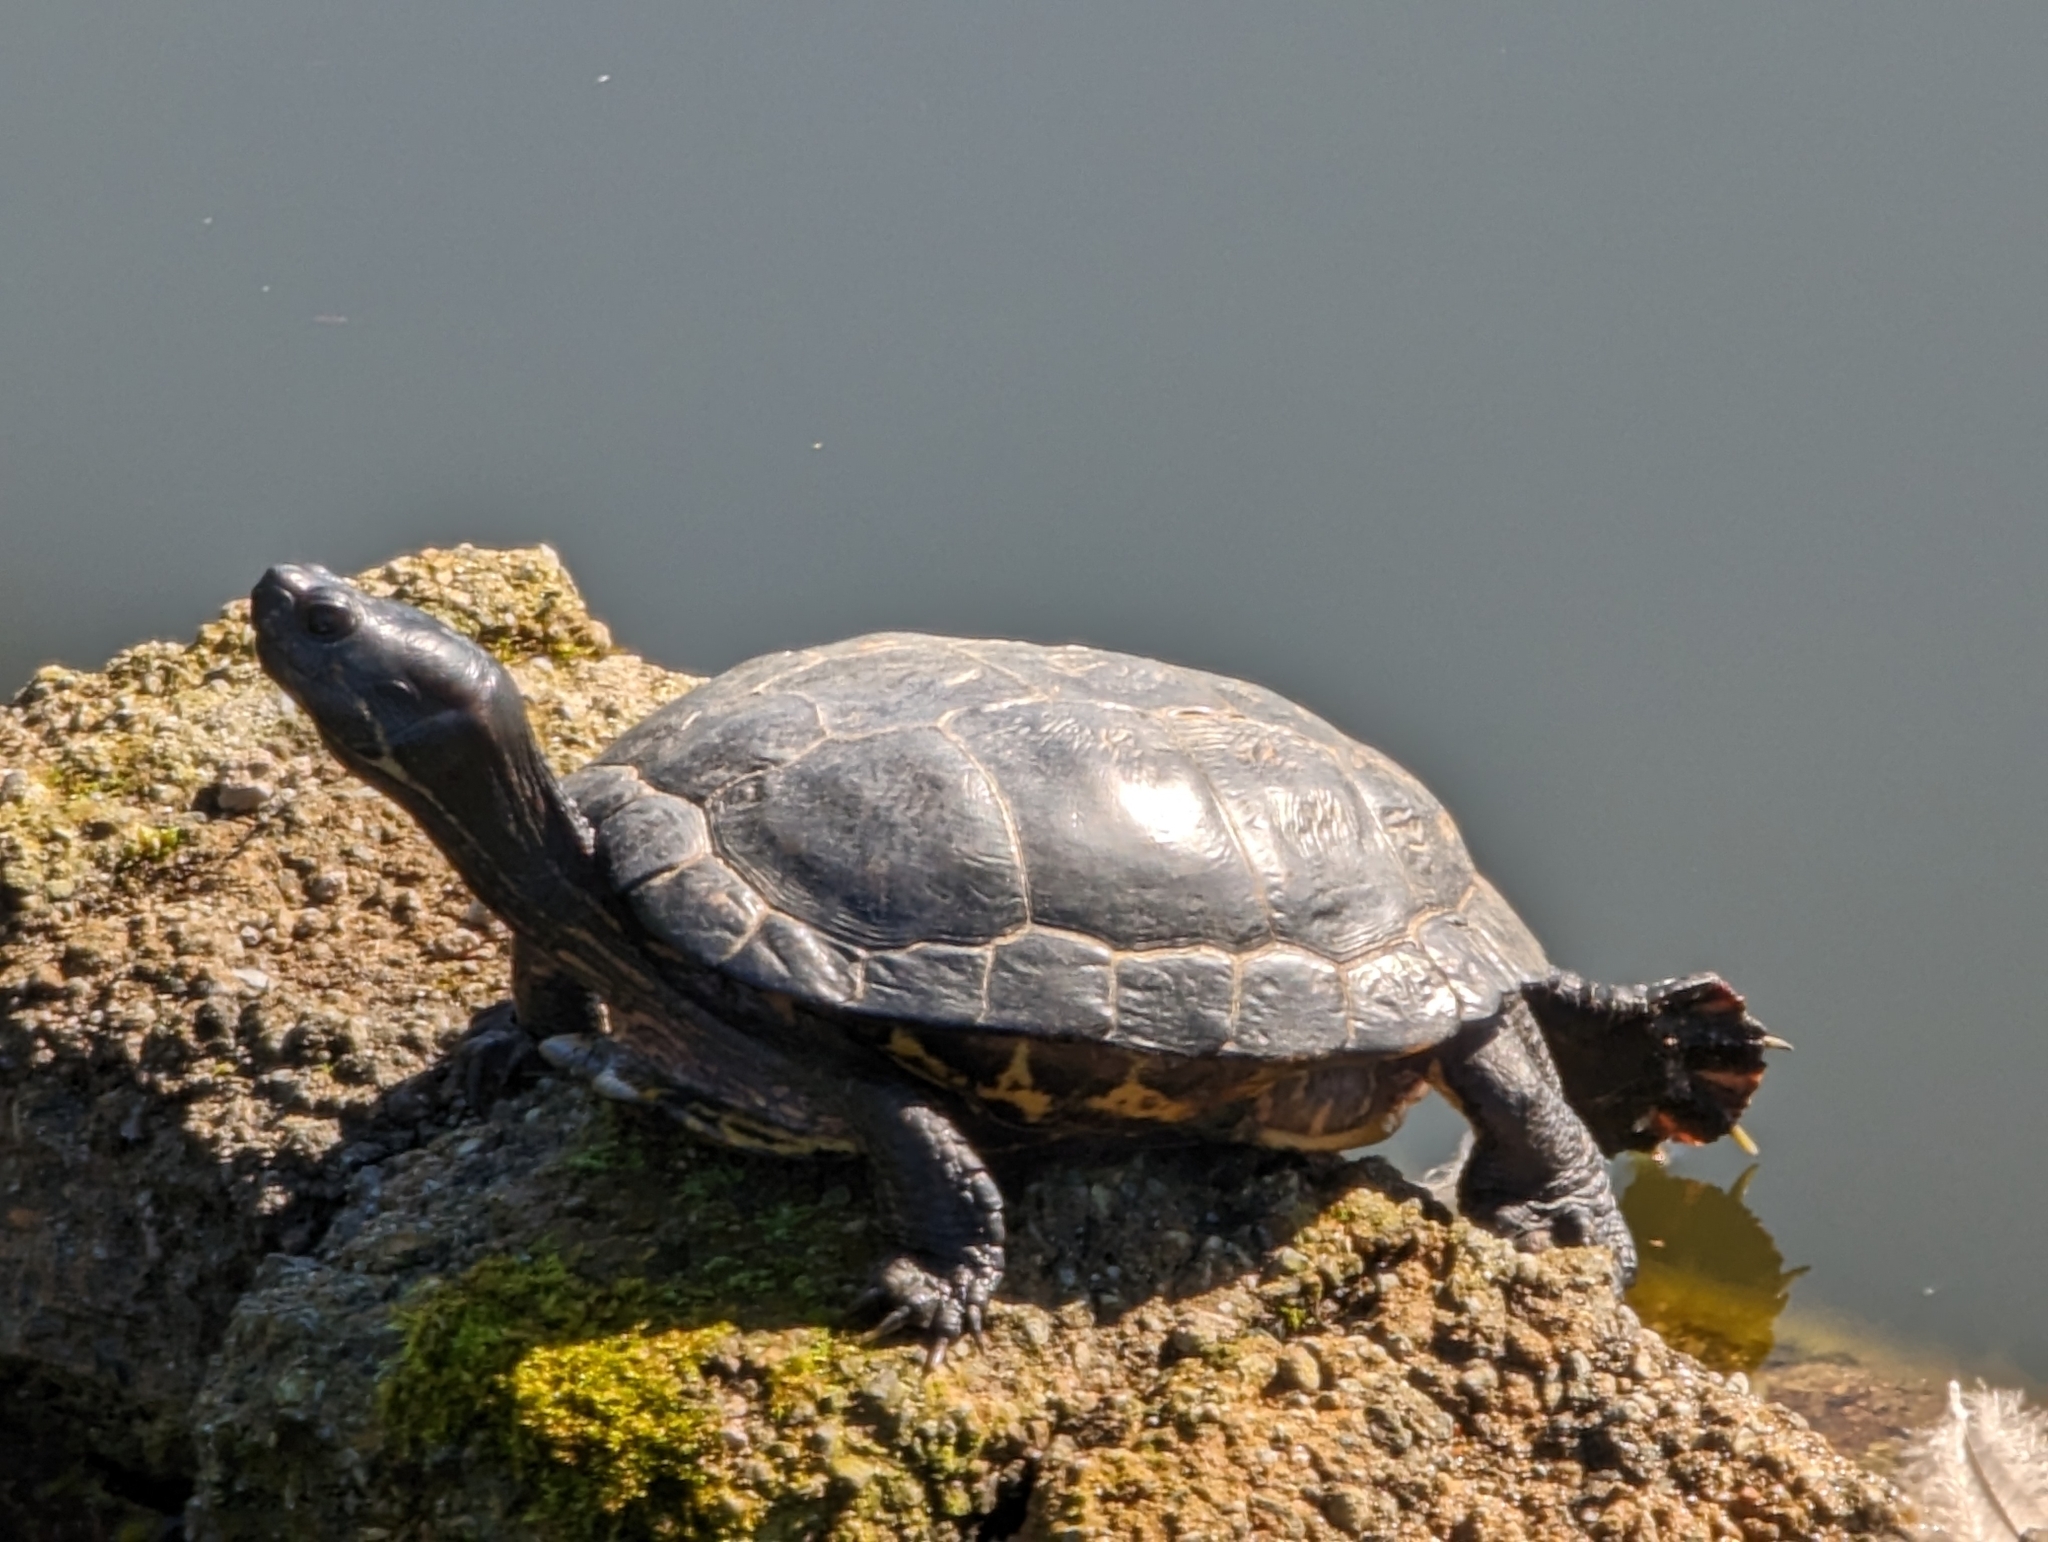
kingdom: Animalia
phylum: Chordata
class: Testudines
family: Emydidae
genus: Trachemys
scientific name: Trachemys scripta
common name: Slider
